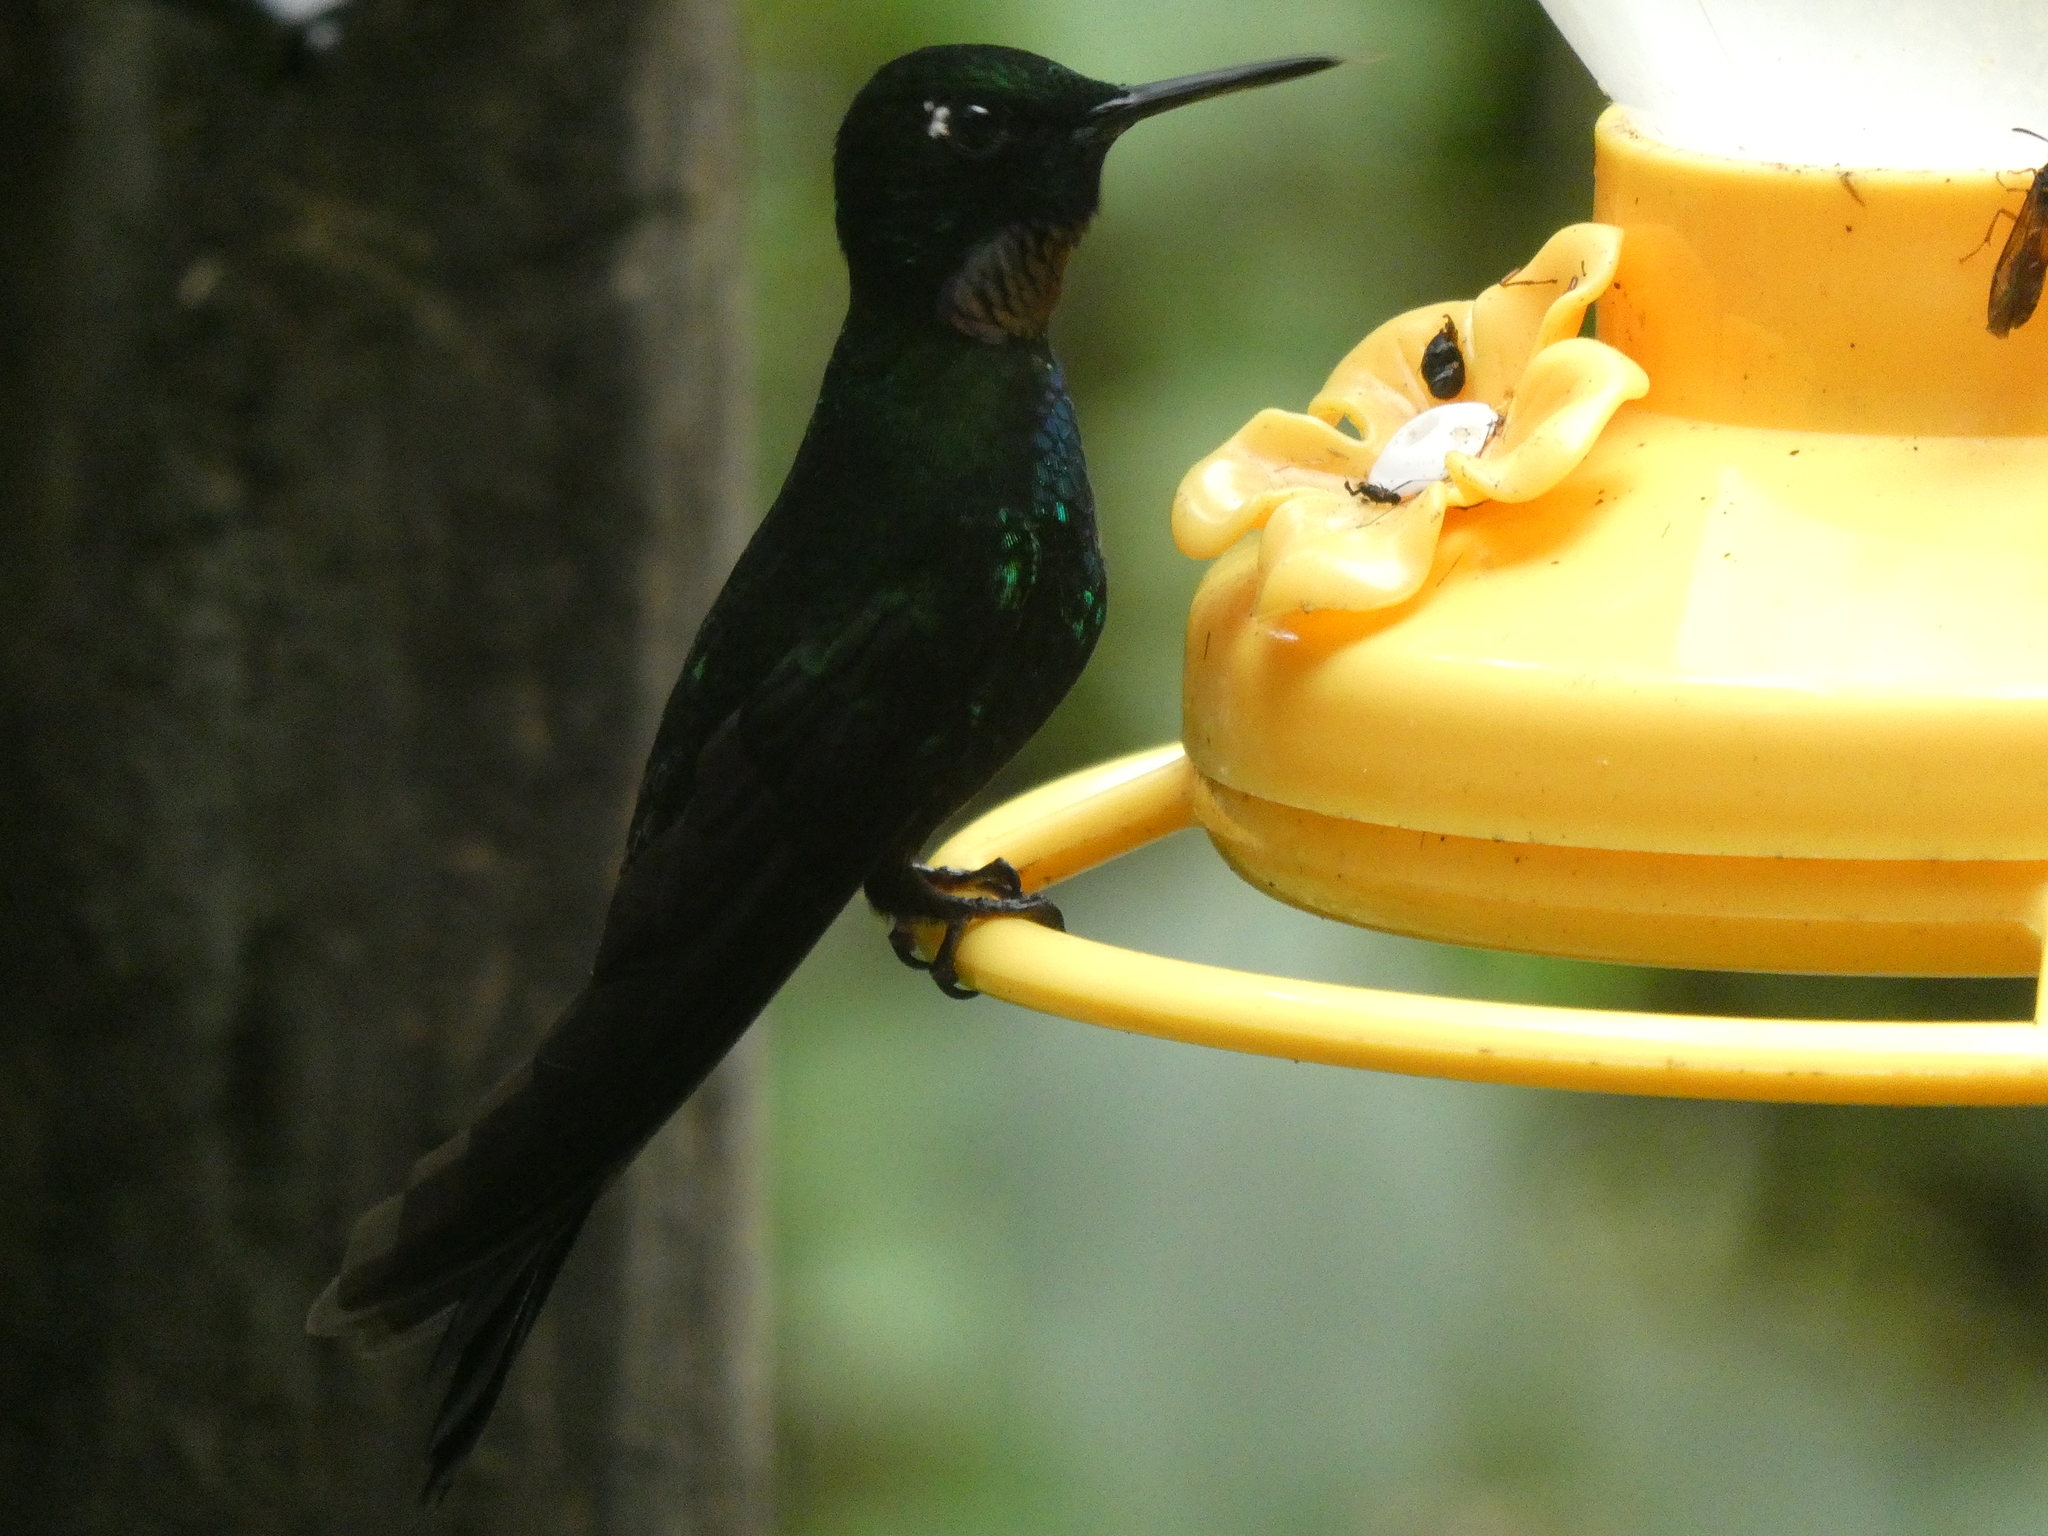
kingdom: Animalia
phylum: Chordata
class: Aves
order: Apodiformes
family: Trochilidae
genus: Heliangelus
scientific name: Heliangelus exortis
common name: Tourmaline sunangel
